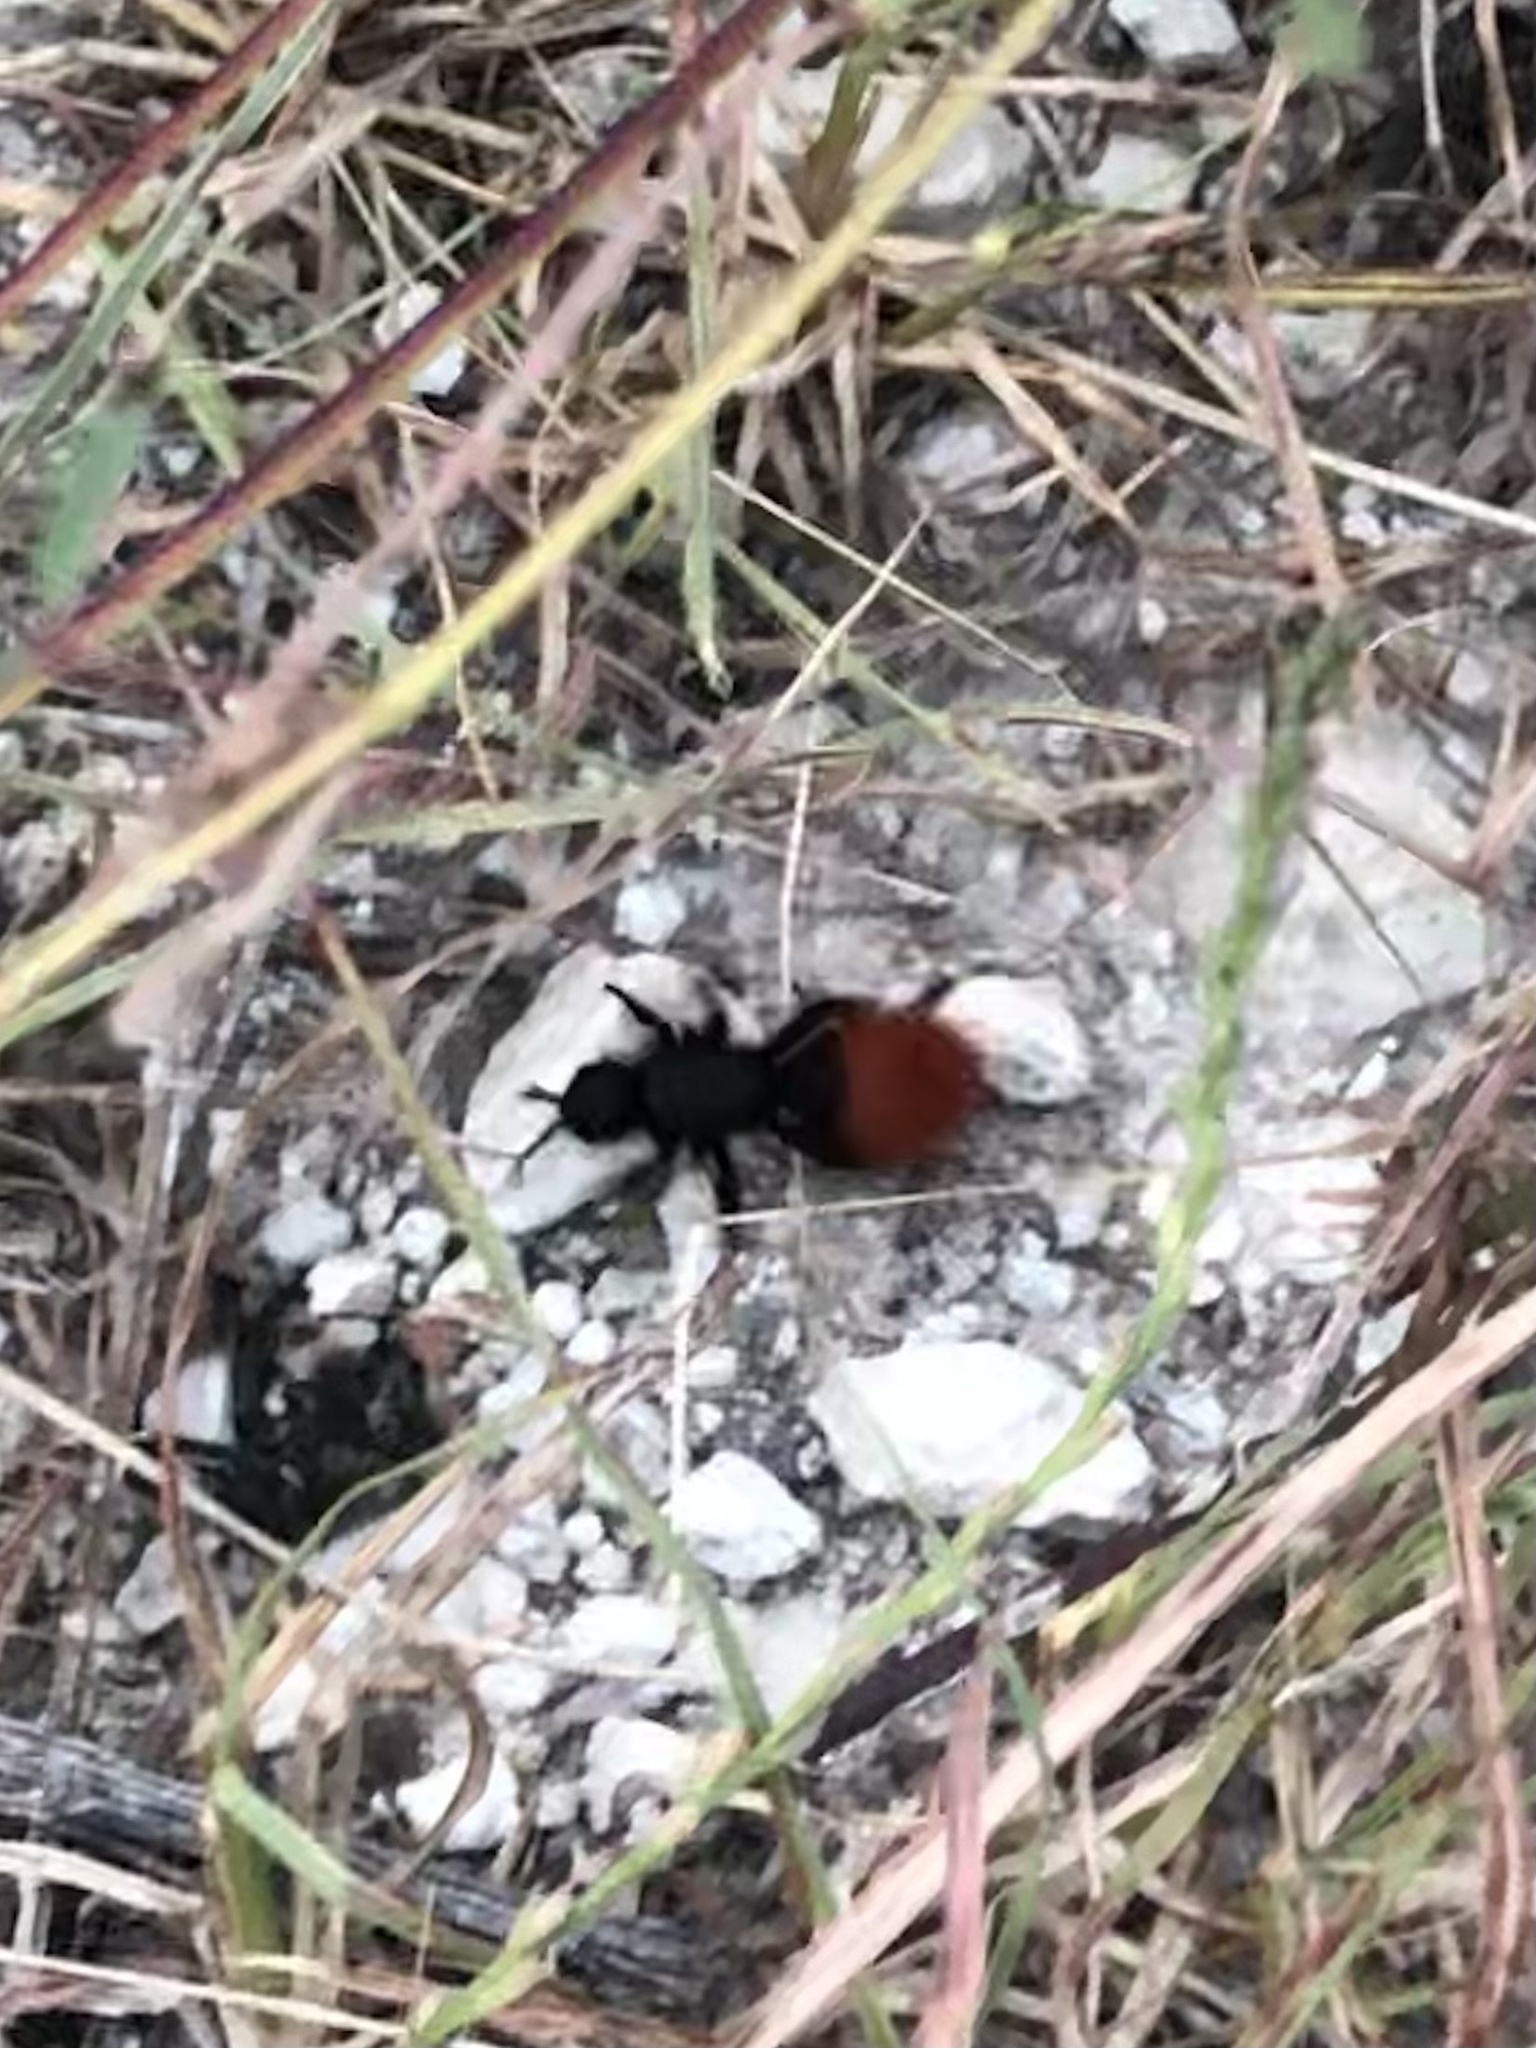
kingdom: Animalia
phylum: Arthropoda
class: Insecta
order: Hymenoptera
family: Mutillidae
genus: Dasymutilla
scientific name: Dasymutilla
